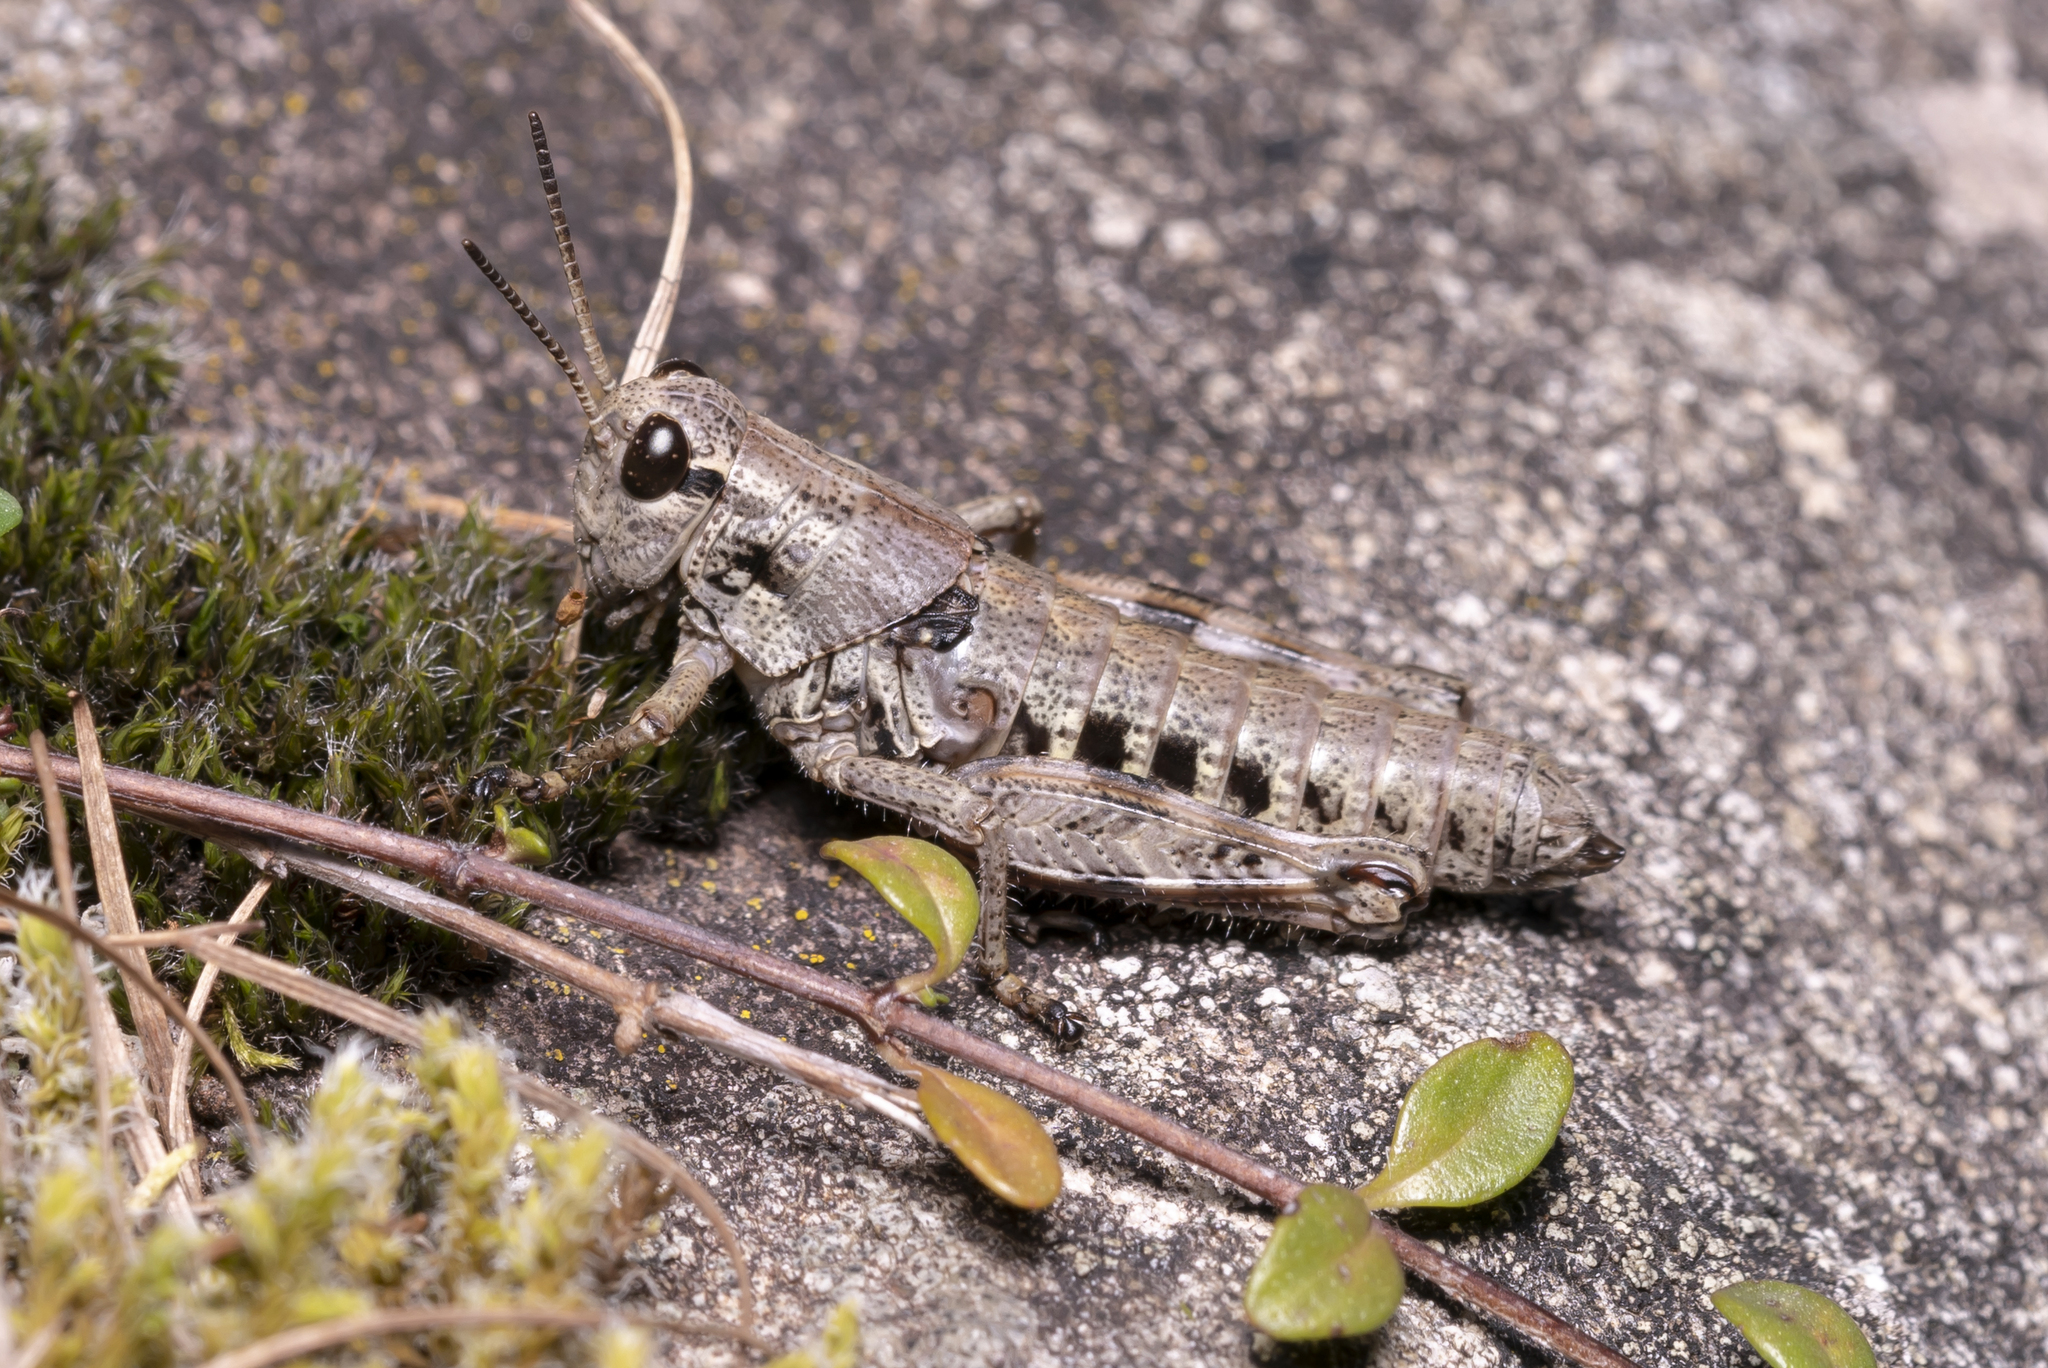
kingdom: Animalia
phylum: Arthropoda
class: Insecta
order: Orthoptera
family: Acrididae
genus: Podisma
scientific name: Podisma pedestris
